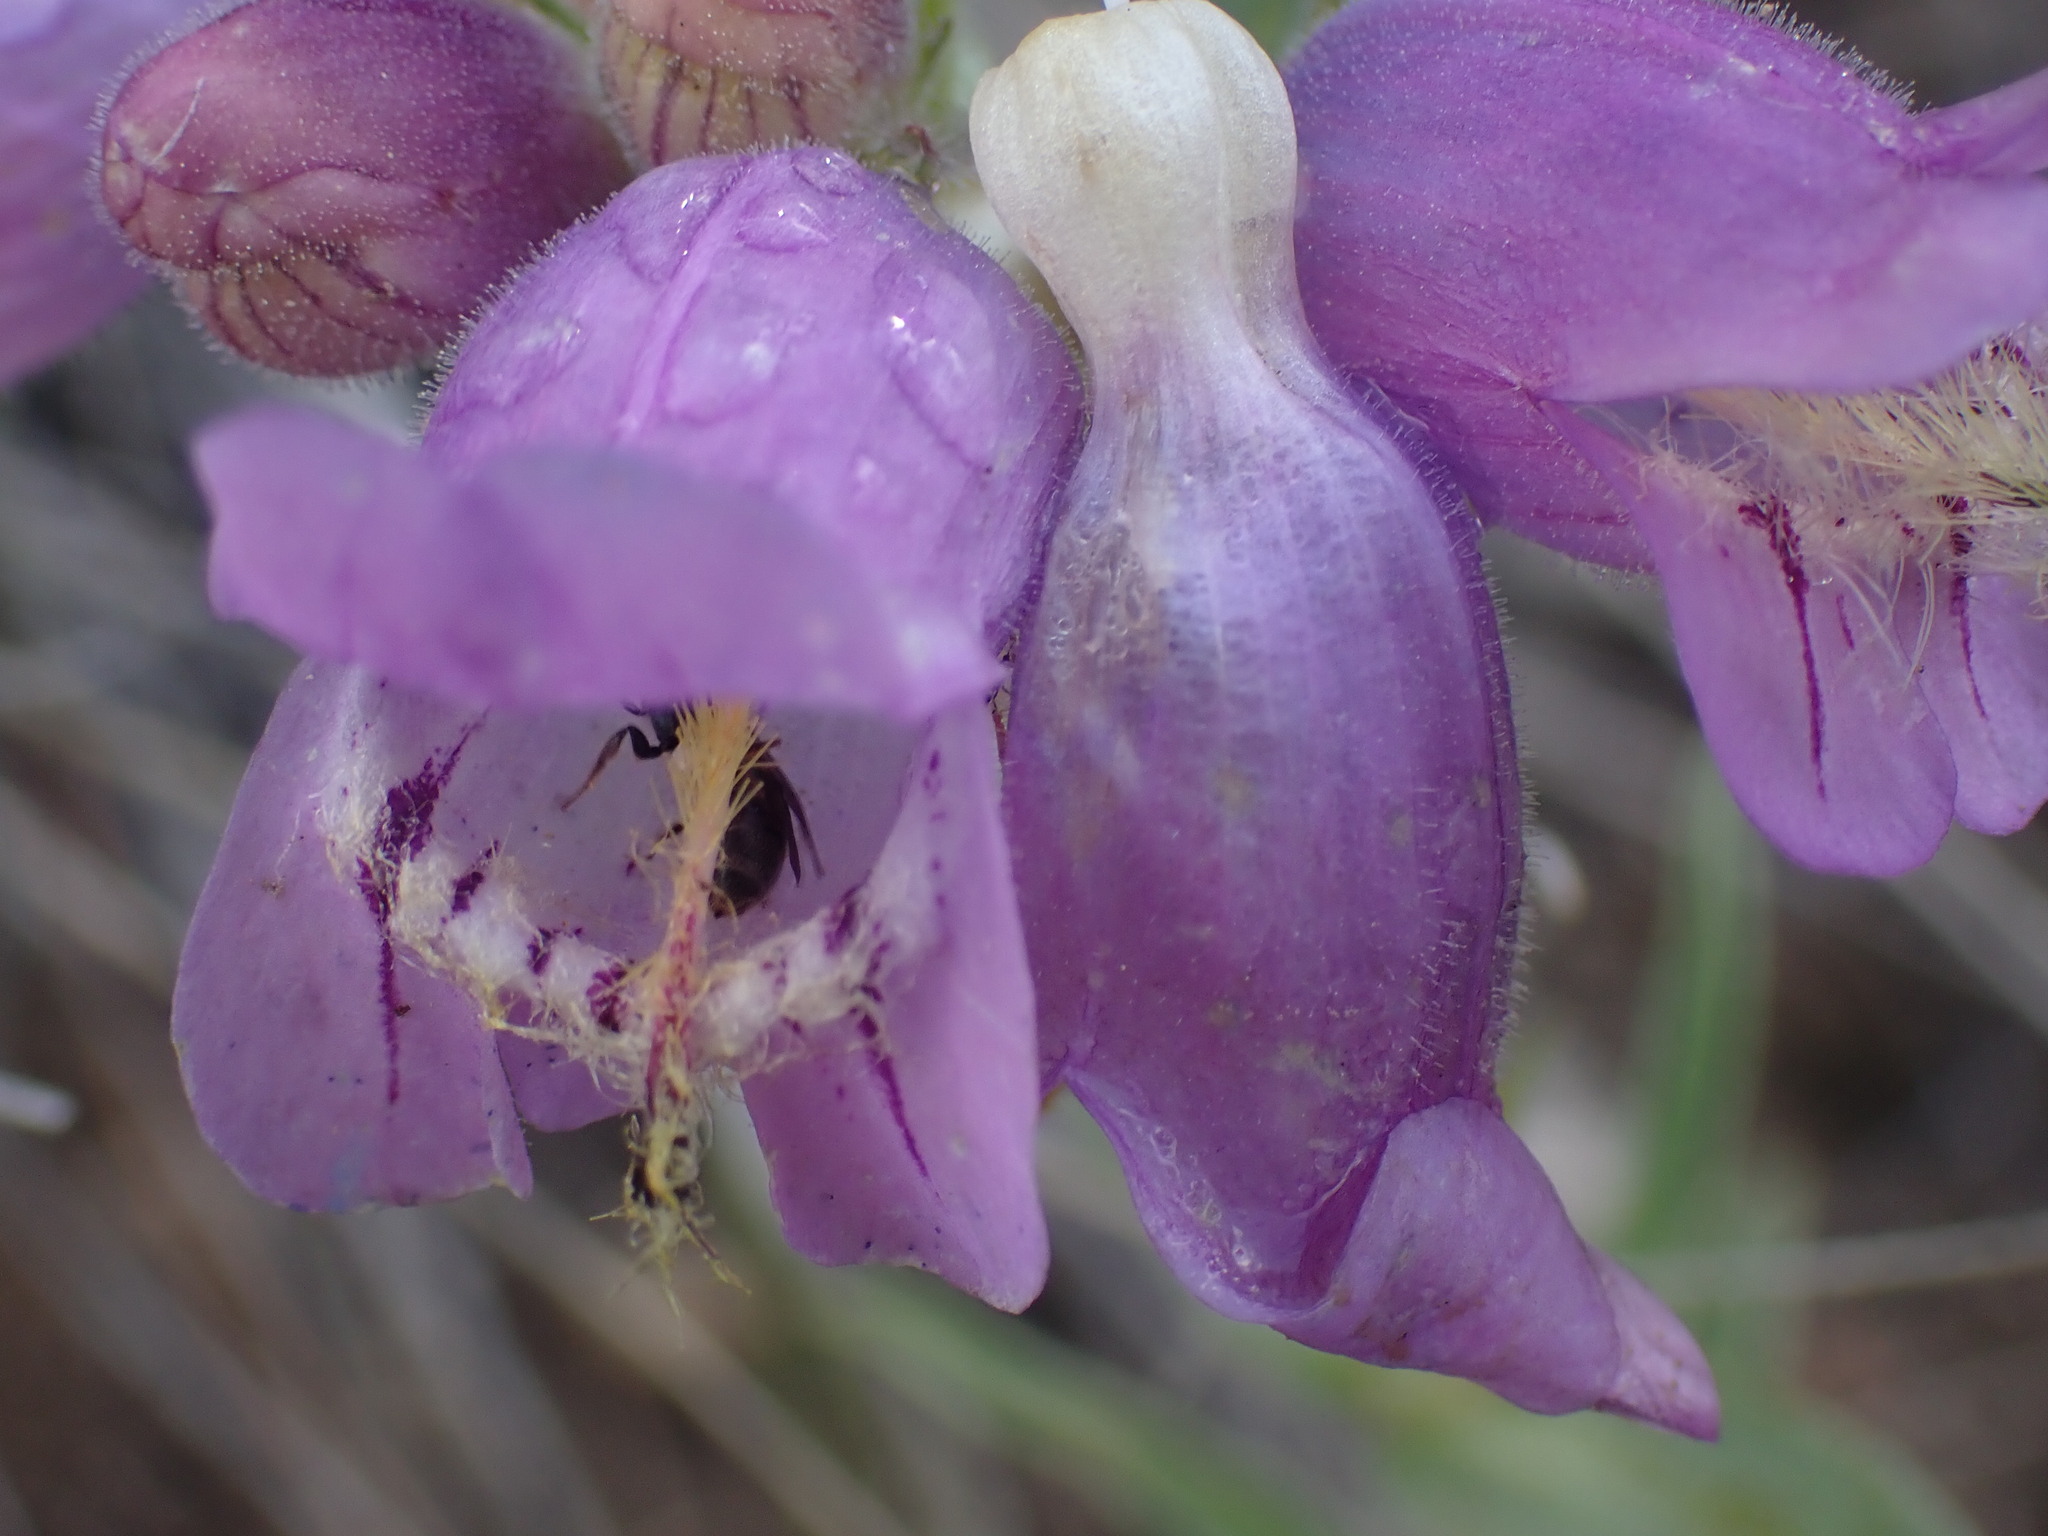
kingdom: Plantae
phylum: Tracheophyta
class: Magnoliopsida
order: Lamiales
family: Plantaginaceae
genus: Penstemon
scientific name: Penstemon eriantherus
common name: Crested beardtongue
